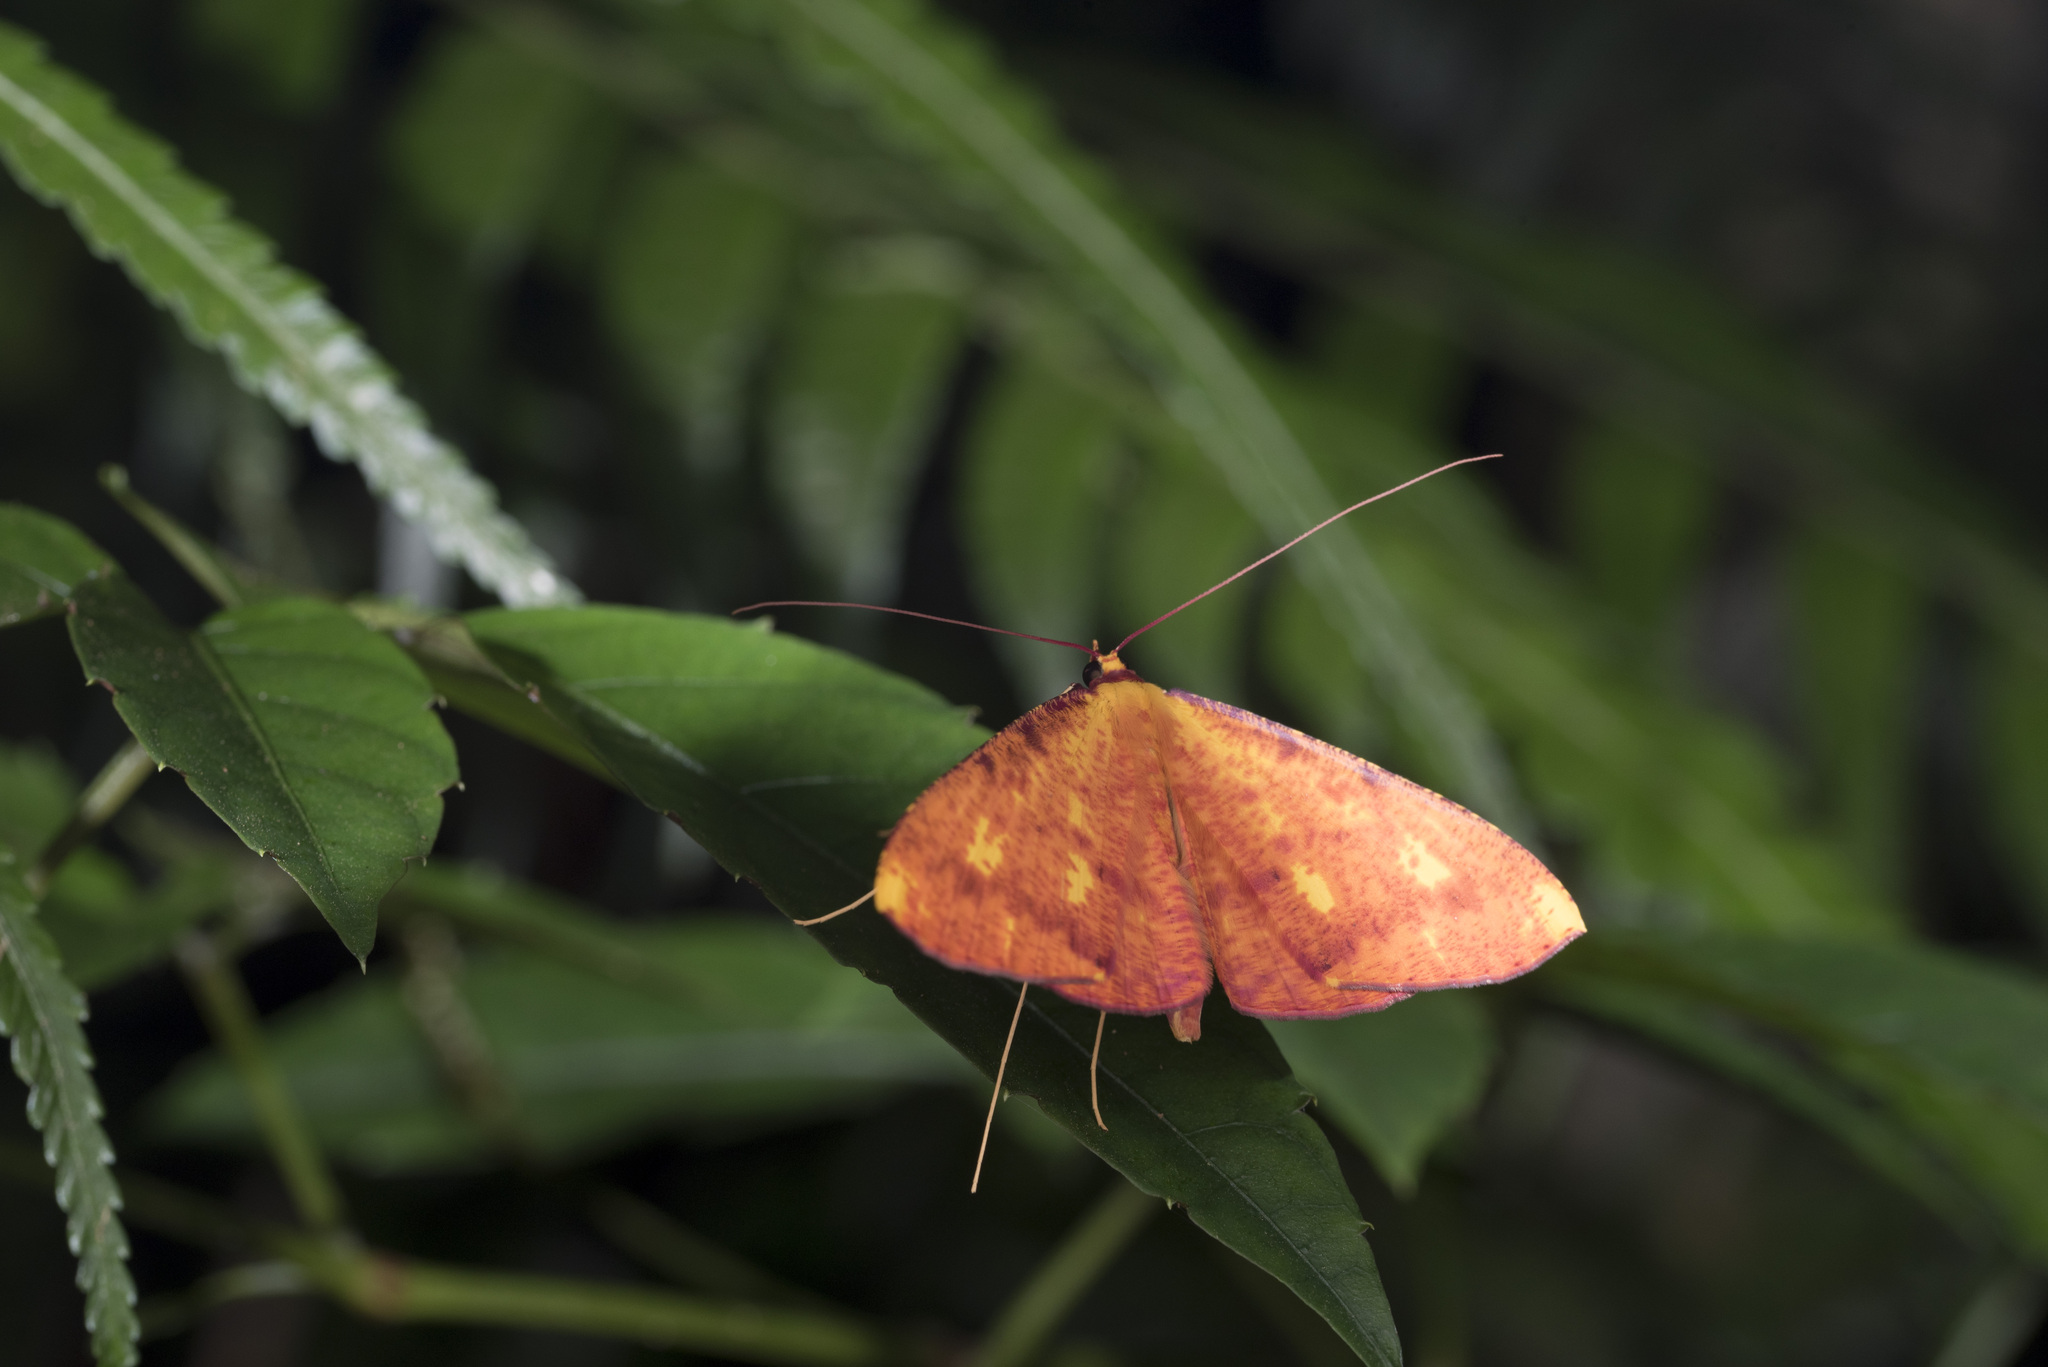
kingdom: Animalia
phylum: Arthropoda
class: Insecta
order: Lepidoptera
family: Geometridae
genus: Eumelea
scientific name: Eumelea ludovicata
